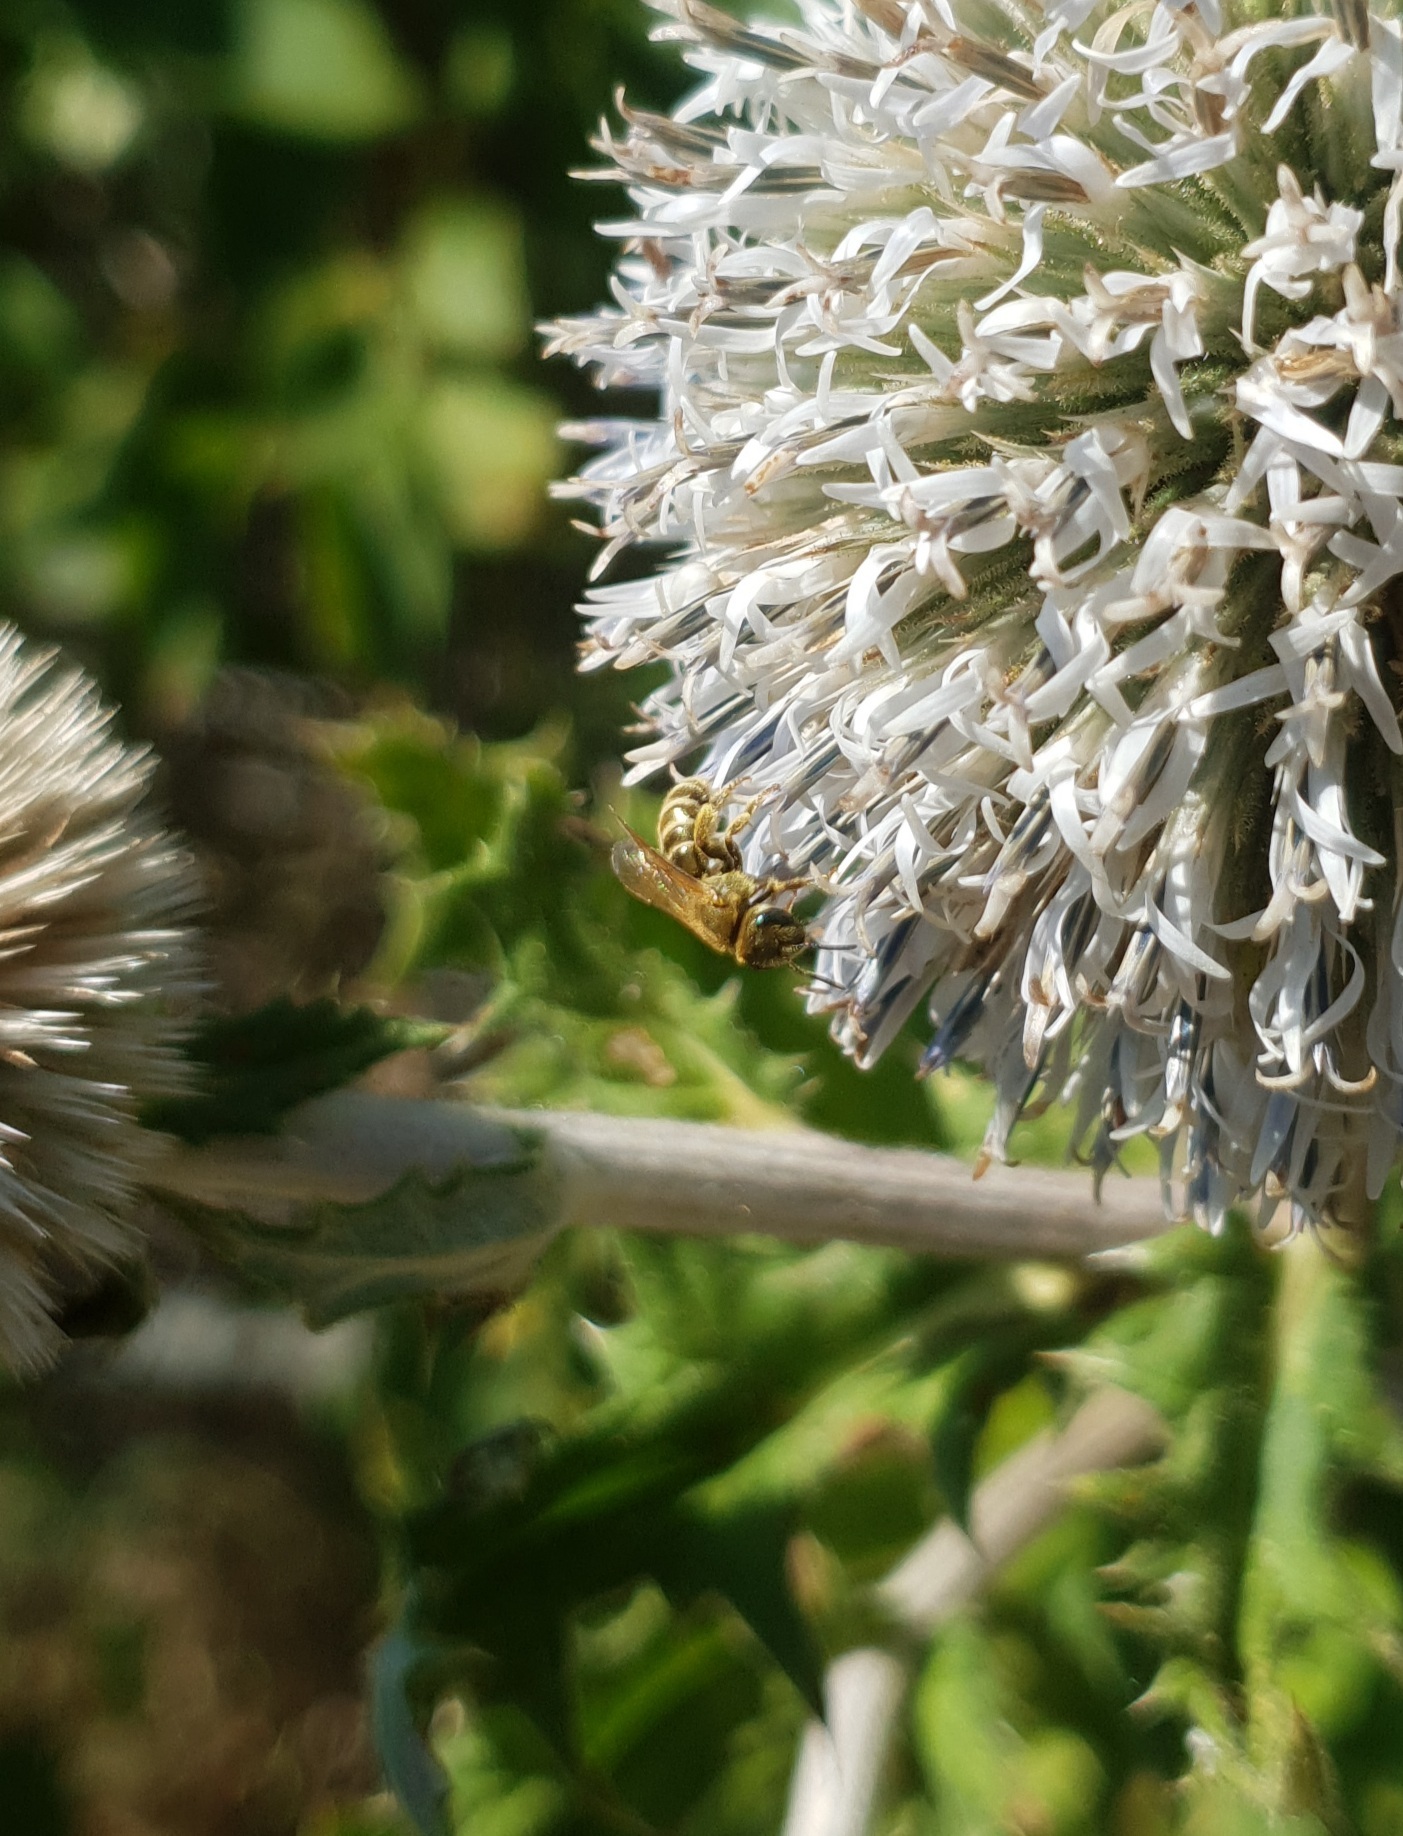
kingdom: Animalia
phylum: Arthropoda
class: Insecta
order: Hymenoptera
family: Halictidae
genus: Halictus
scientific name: Halictus subauratus
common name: Golden furrow bee
